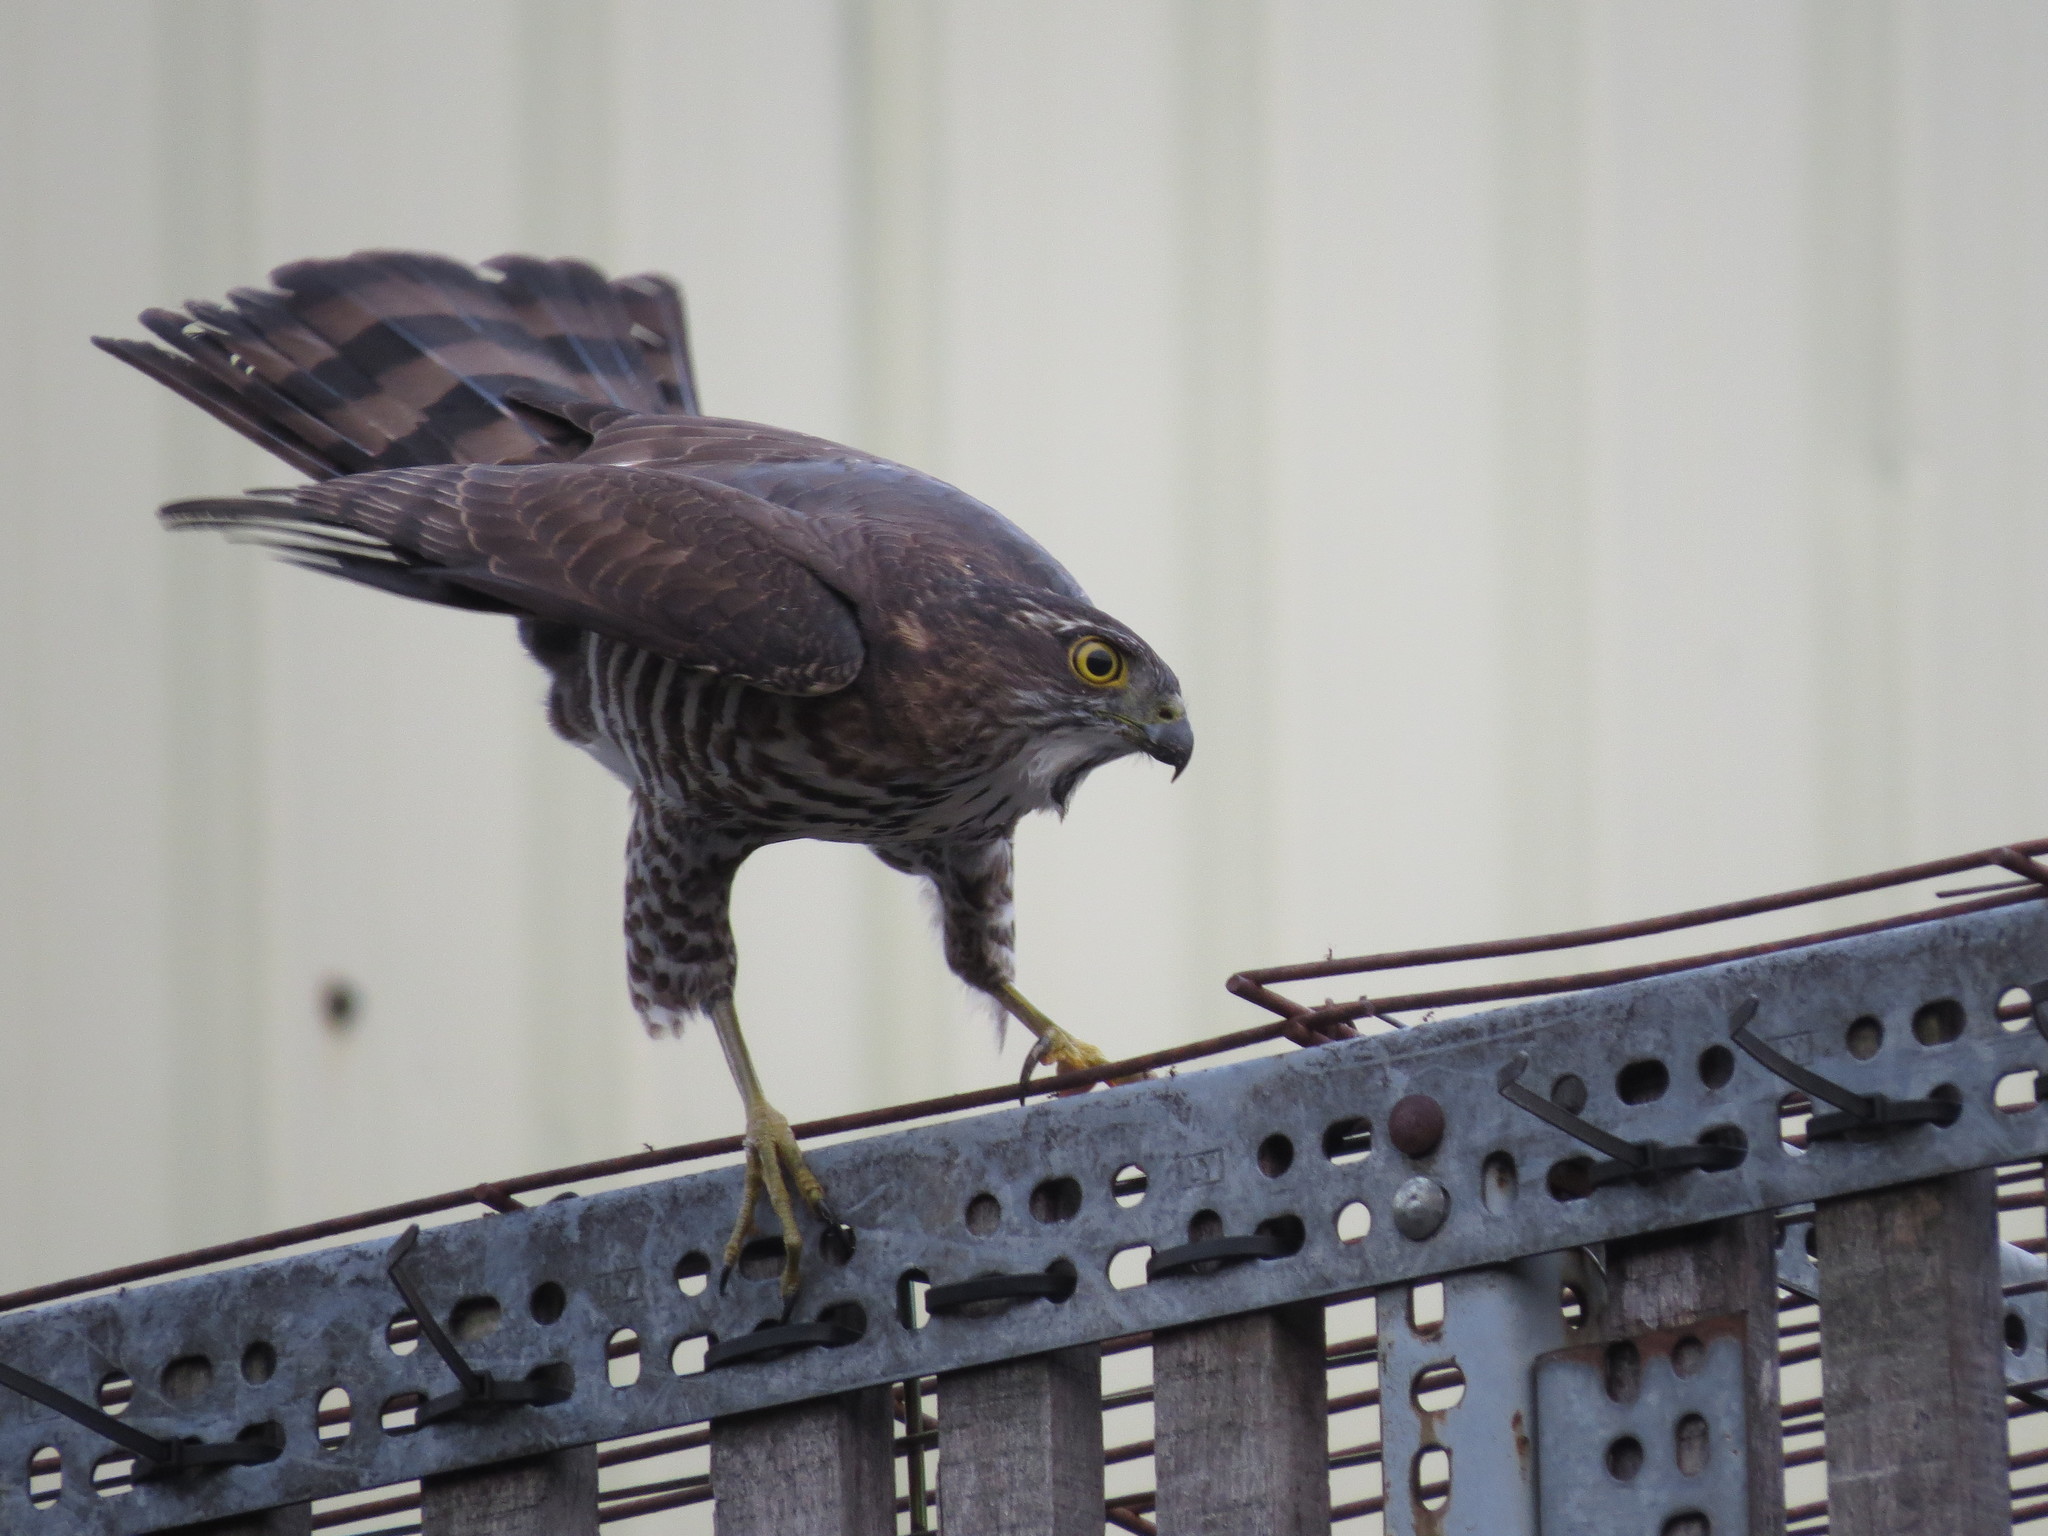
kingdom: Animalia
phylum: Chordata
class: Aves
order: Accipitriformes
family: Accipitridae
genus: Accipiter
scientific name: Accipiter virgatus
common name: Besra
